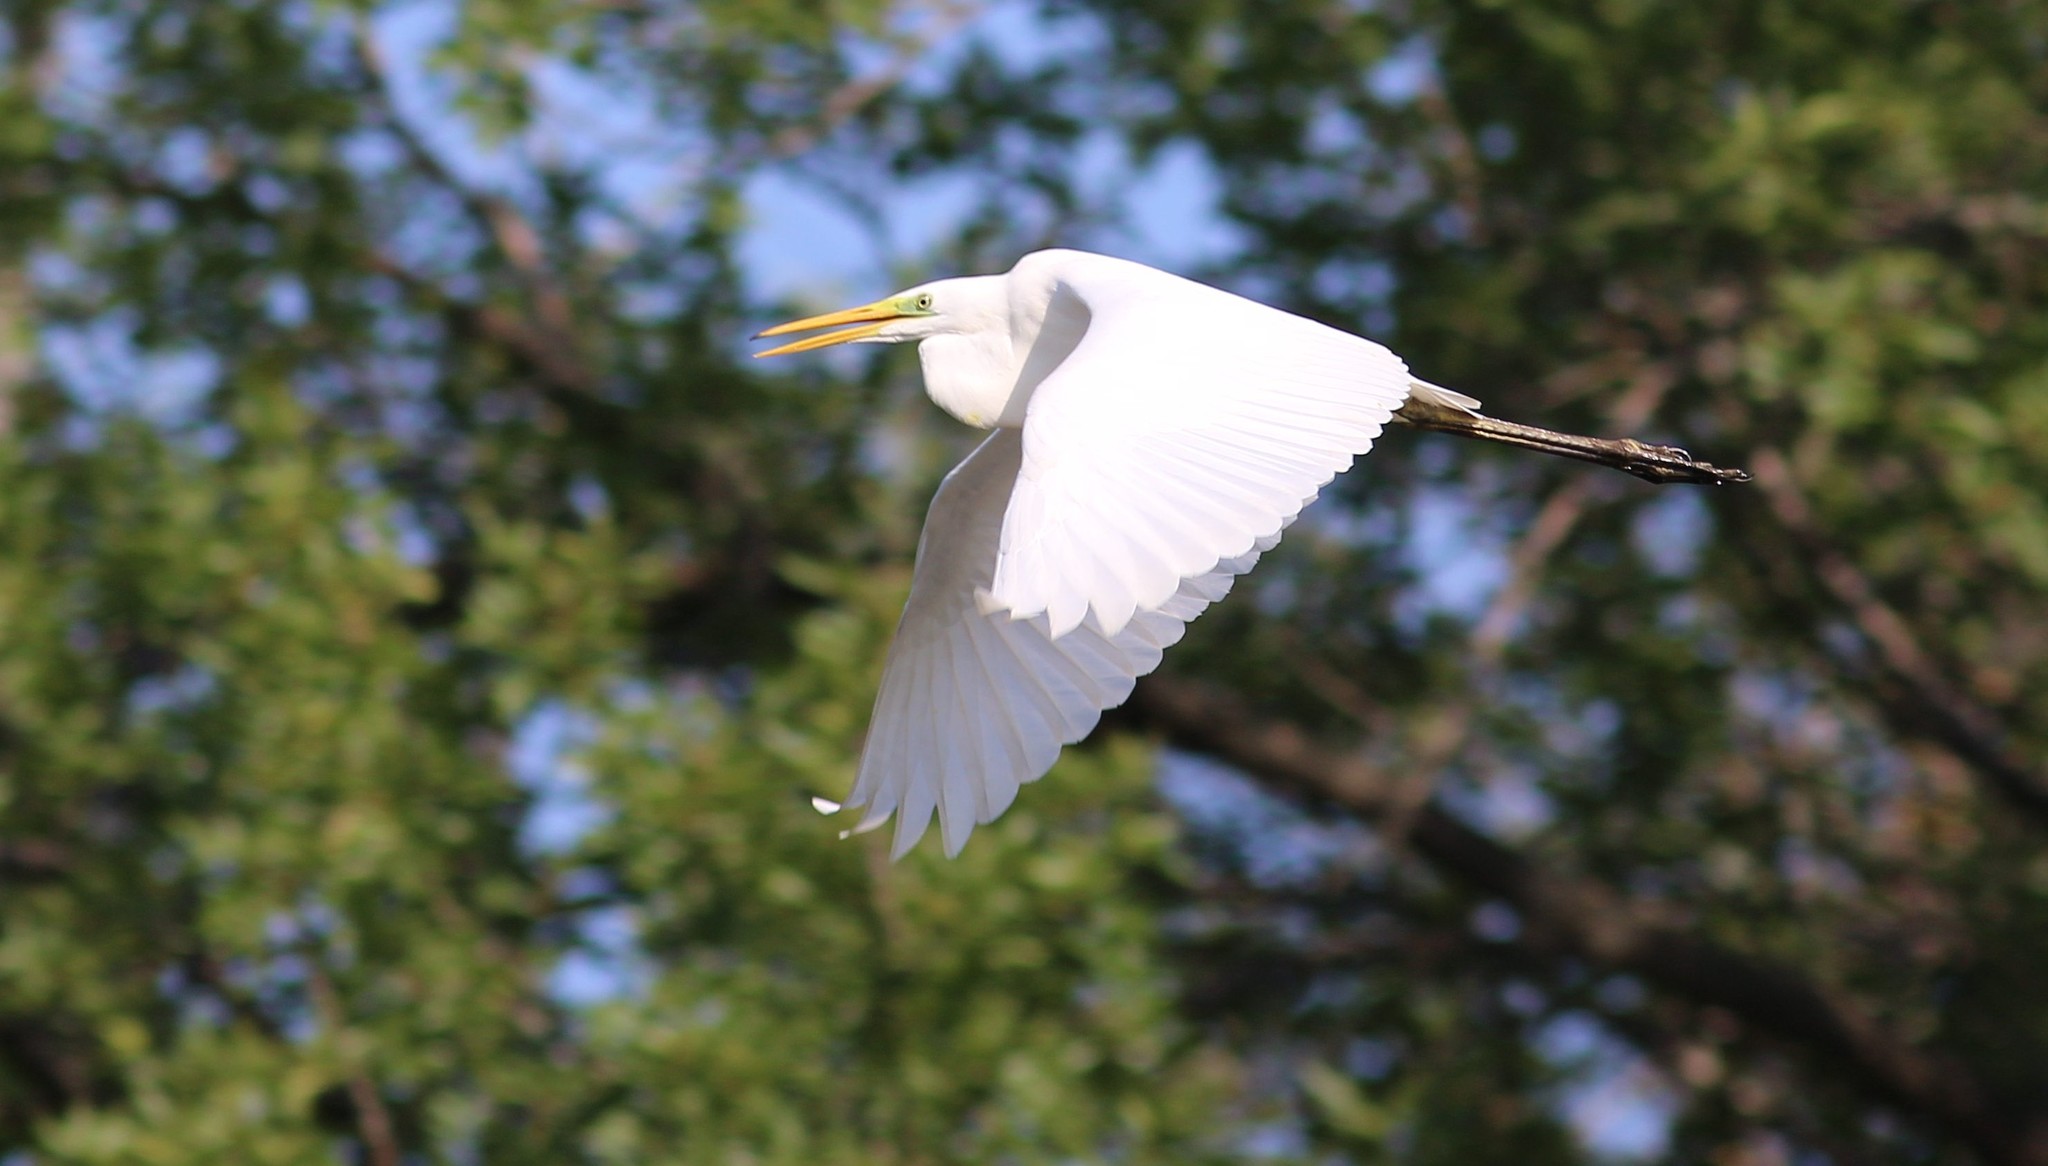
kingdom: Animalia
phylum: Chordata
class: Aves
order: Pelecaniformes
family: Ardeidae
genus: Ardea
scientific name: Ardea alba
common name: Great egret
